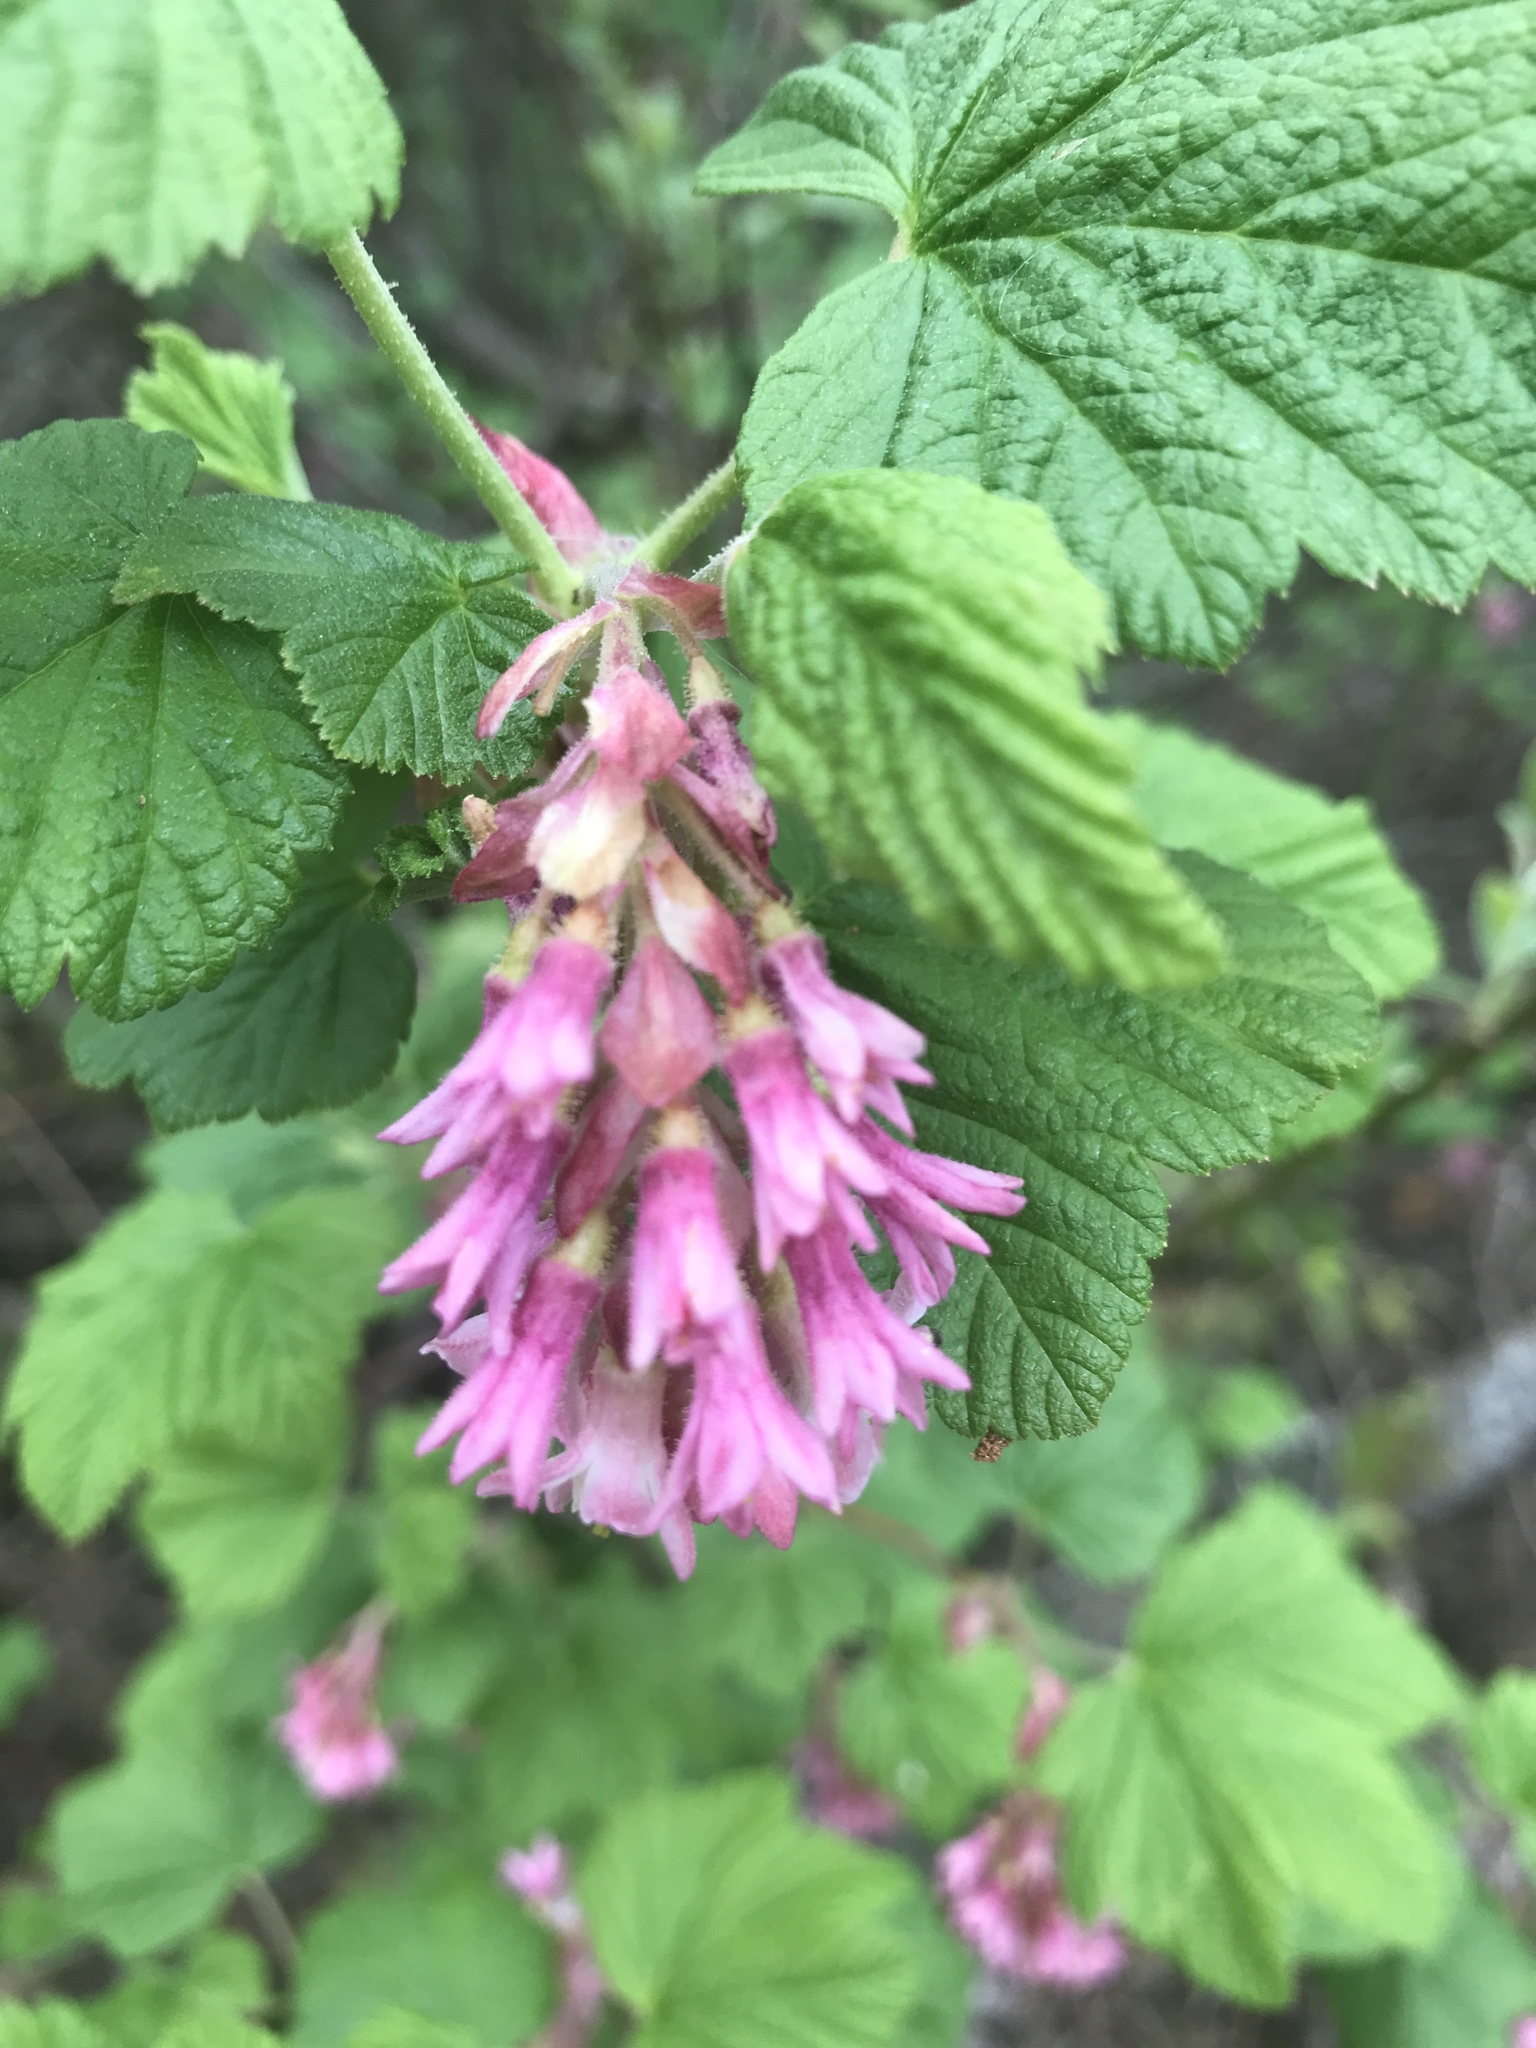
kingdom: Plantae
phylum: Tracheophyta
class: Magnoliopsida
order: Saxifragales
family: Grossulariaceae
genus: Ribes
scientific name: Ribes sanguineum
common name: Flowering currant
